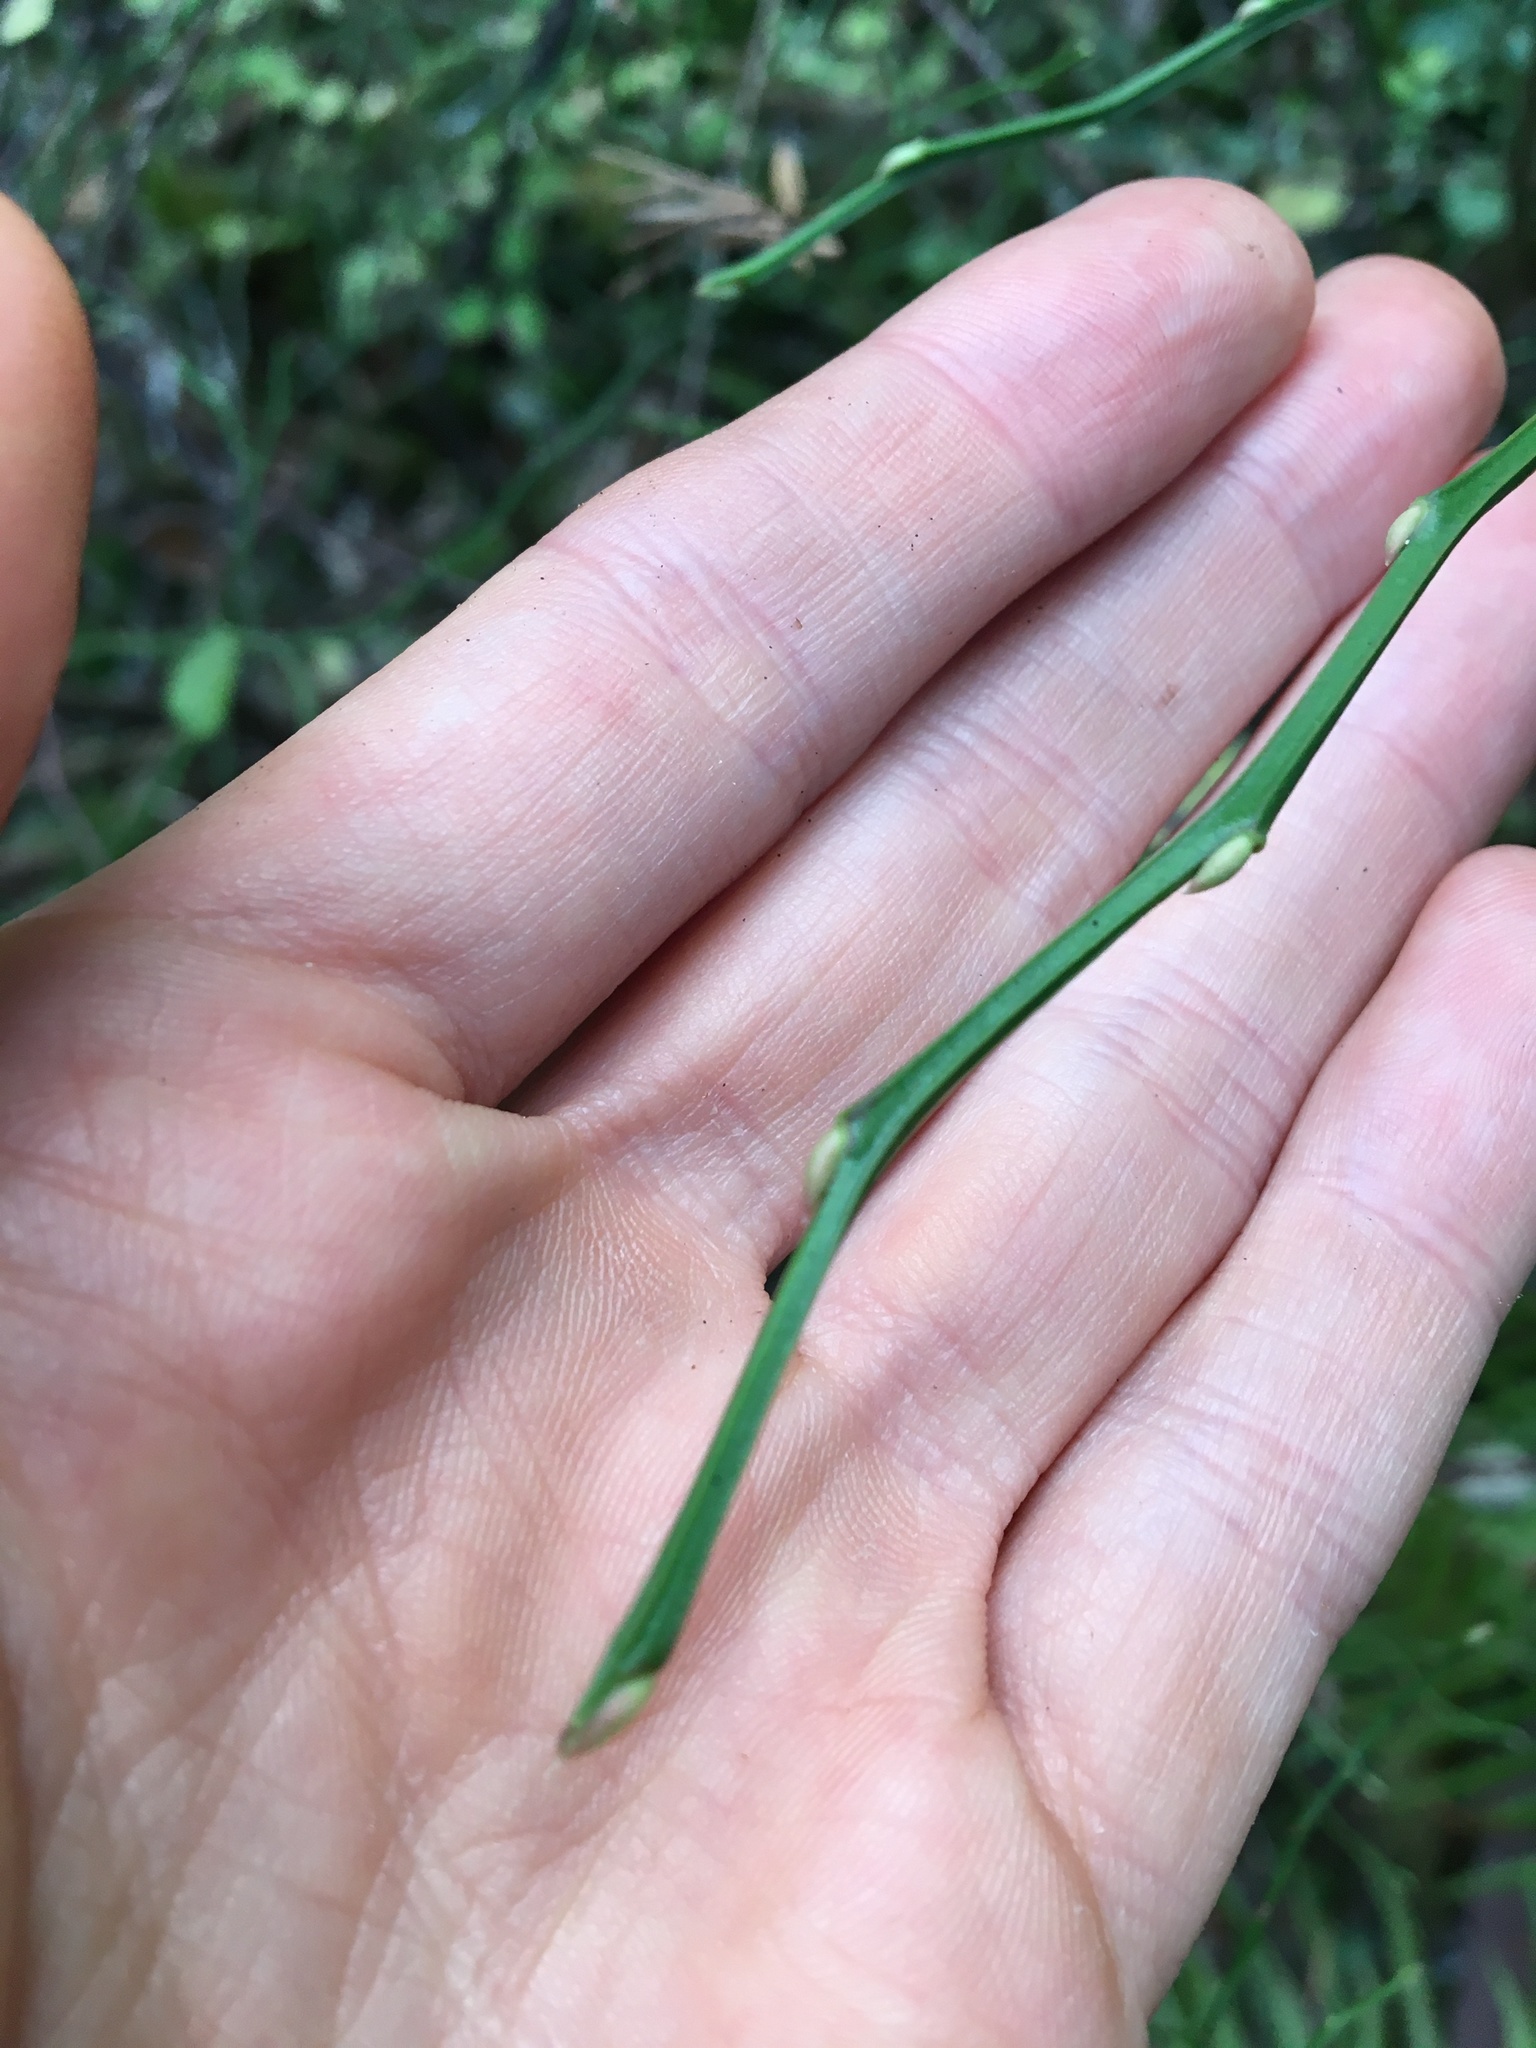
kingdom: Plantae
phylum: Tracheophyta
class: Magnoliopsida
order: Ericales
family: Ericaceae
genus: Vaccinium
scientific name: Vaccinium parvifolium
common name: Red-huckleberry
